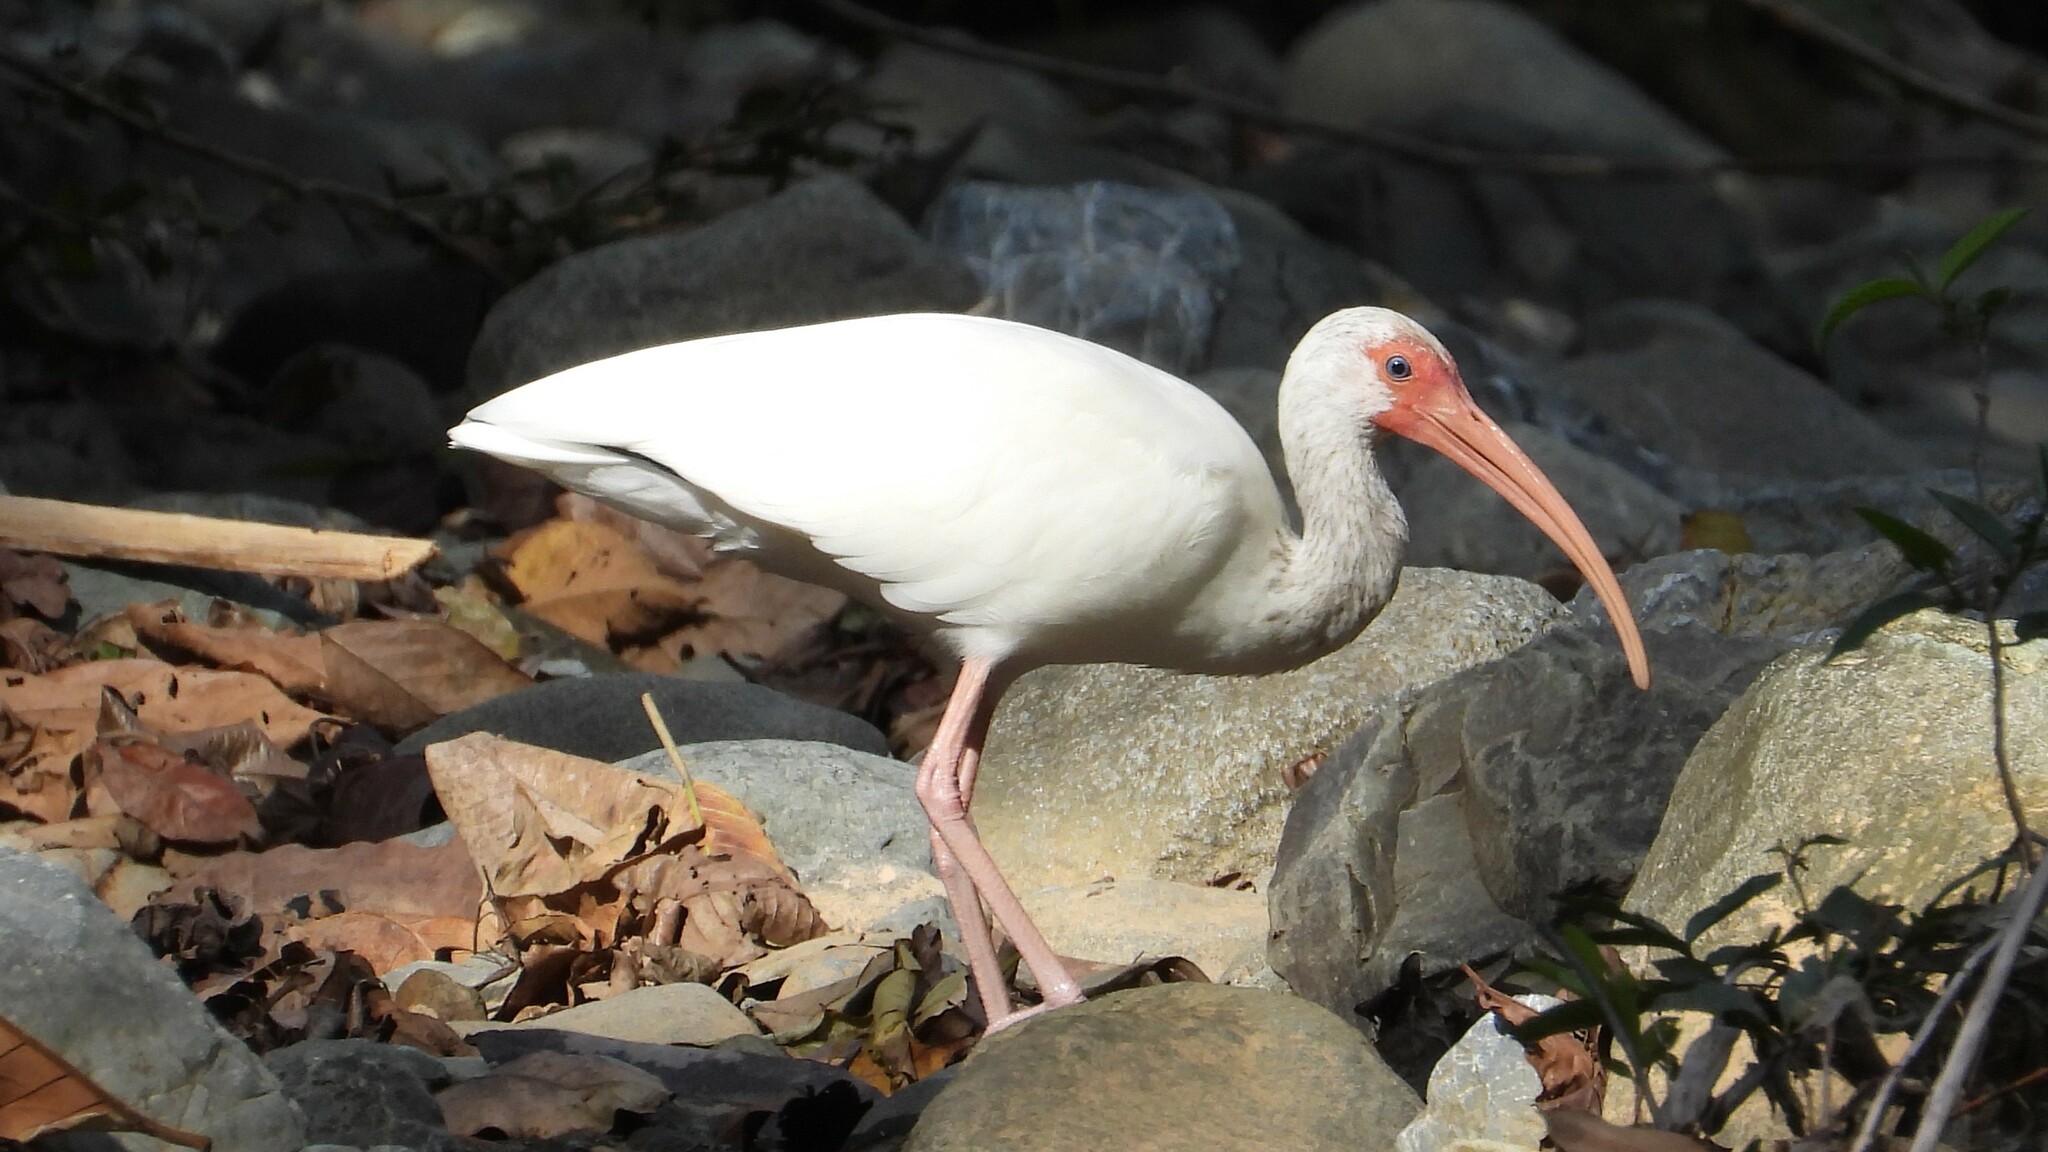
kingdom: Animalia
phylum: Chordata
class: Aves
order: Pelecaniformes
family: Threskiornithidae
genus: Eudocimus
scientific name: Eudocimus albus
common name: White ibis
